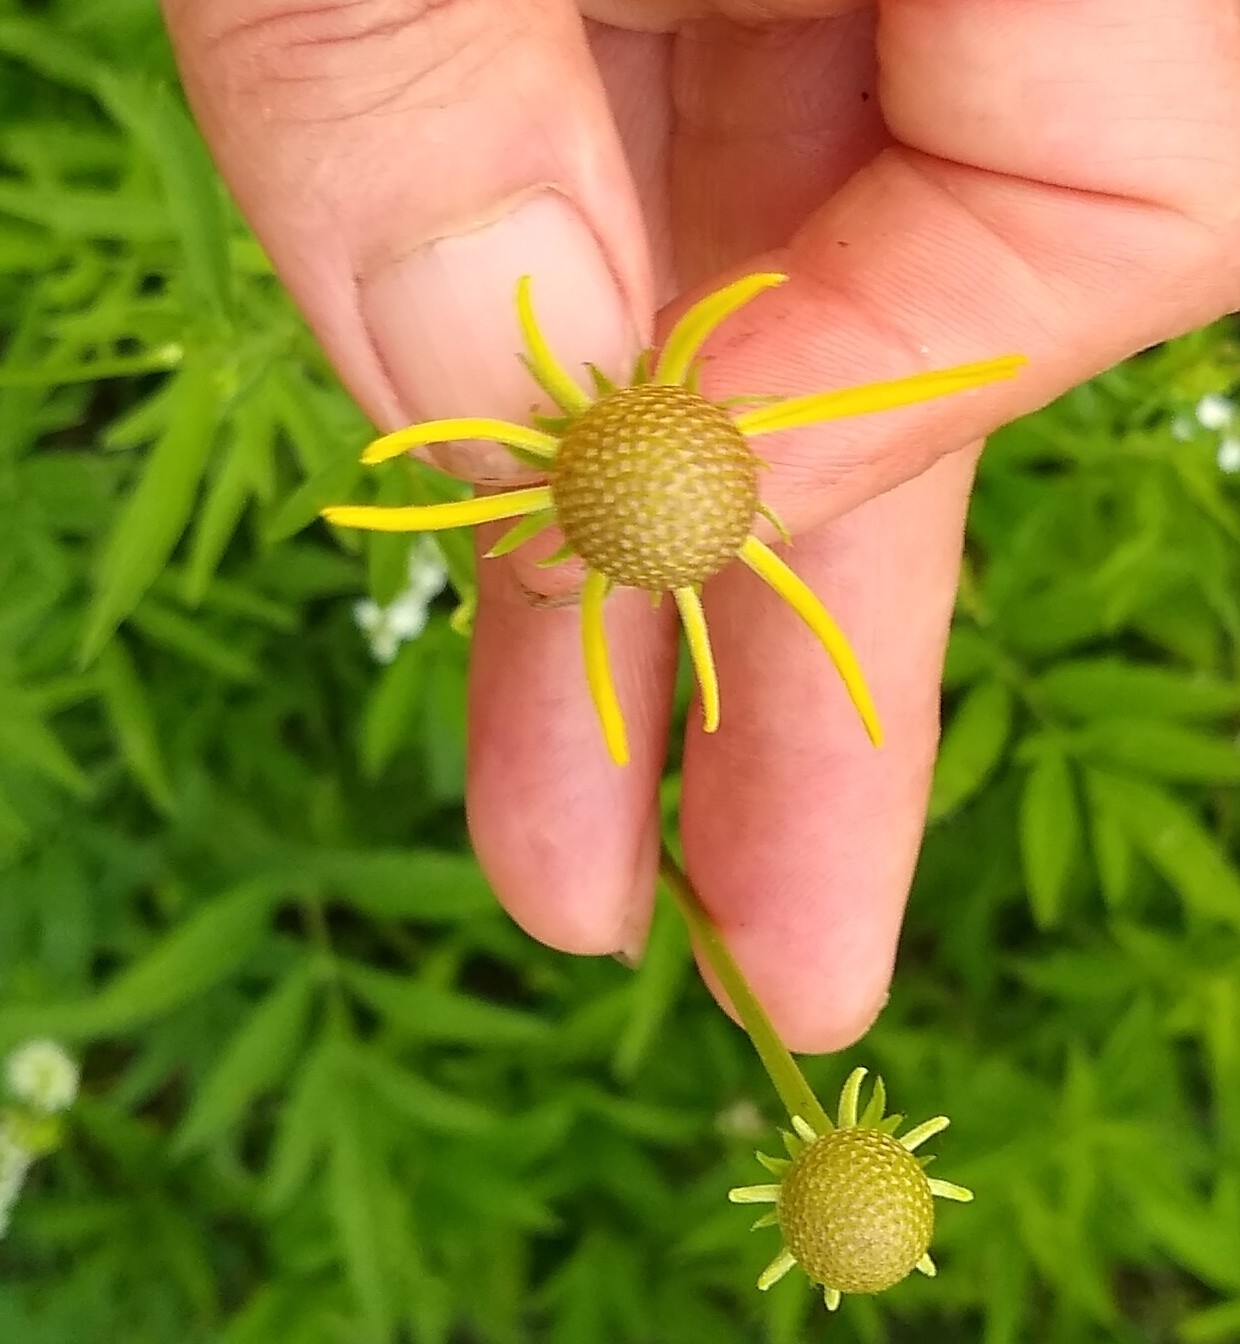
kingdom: Plantae
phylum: Tracheophyta
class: Magnoliopsida
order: Asterales
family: Asteraceae
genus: Ratibida
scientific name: Ratibida pinnata
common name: Drooping prairie-coneflower
